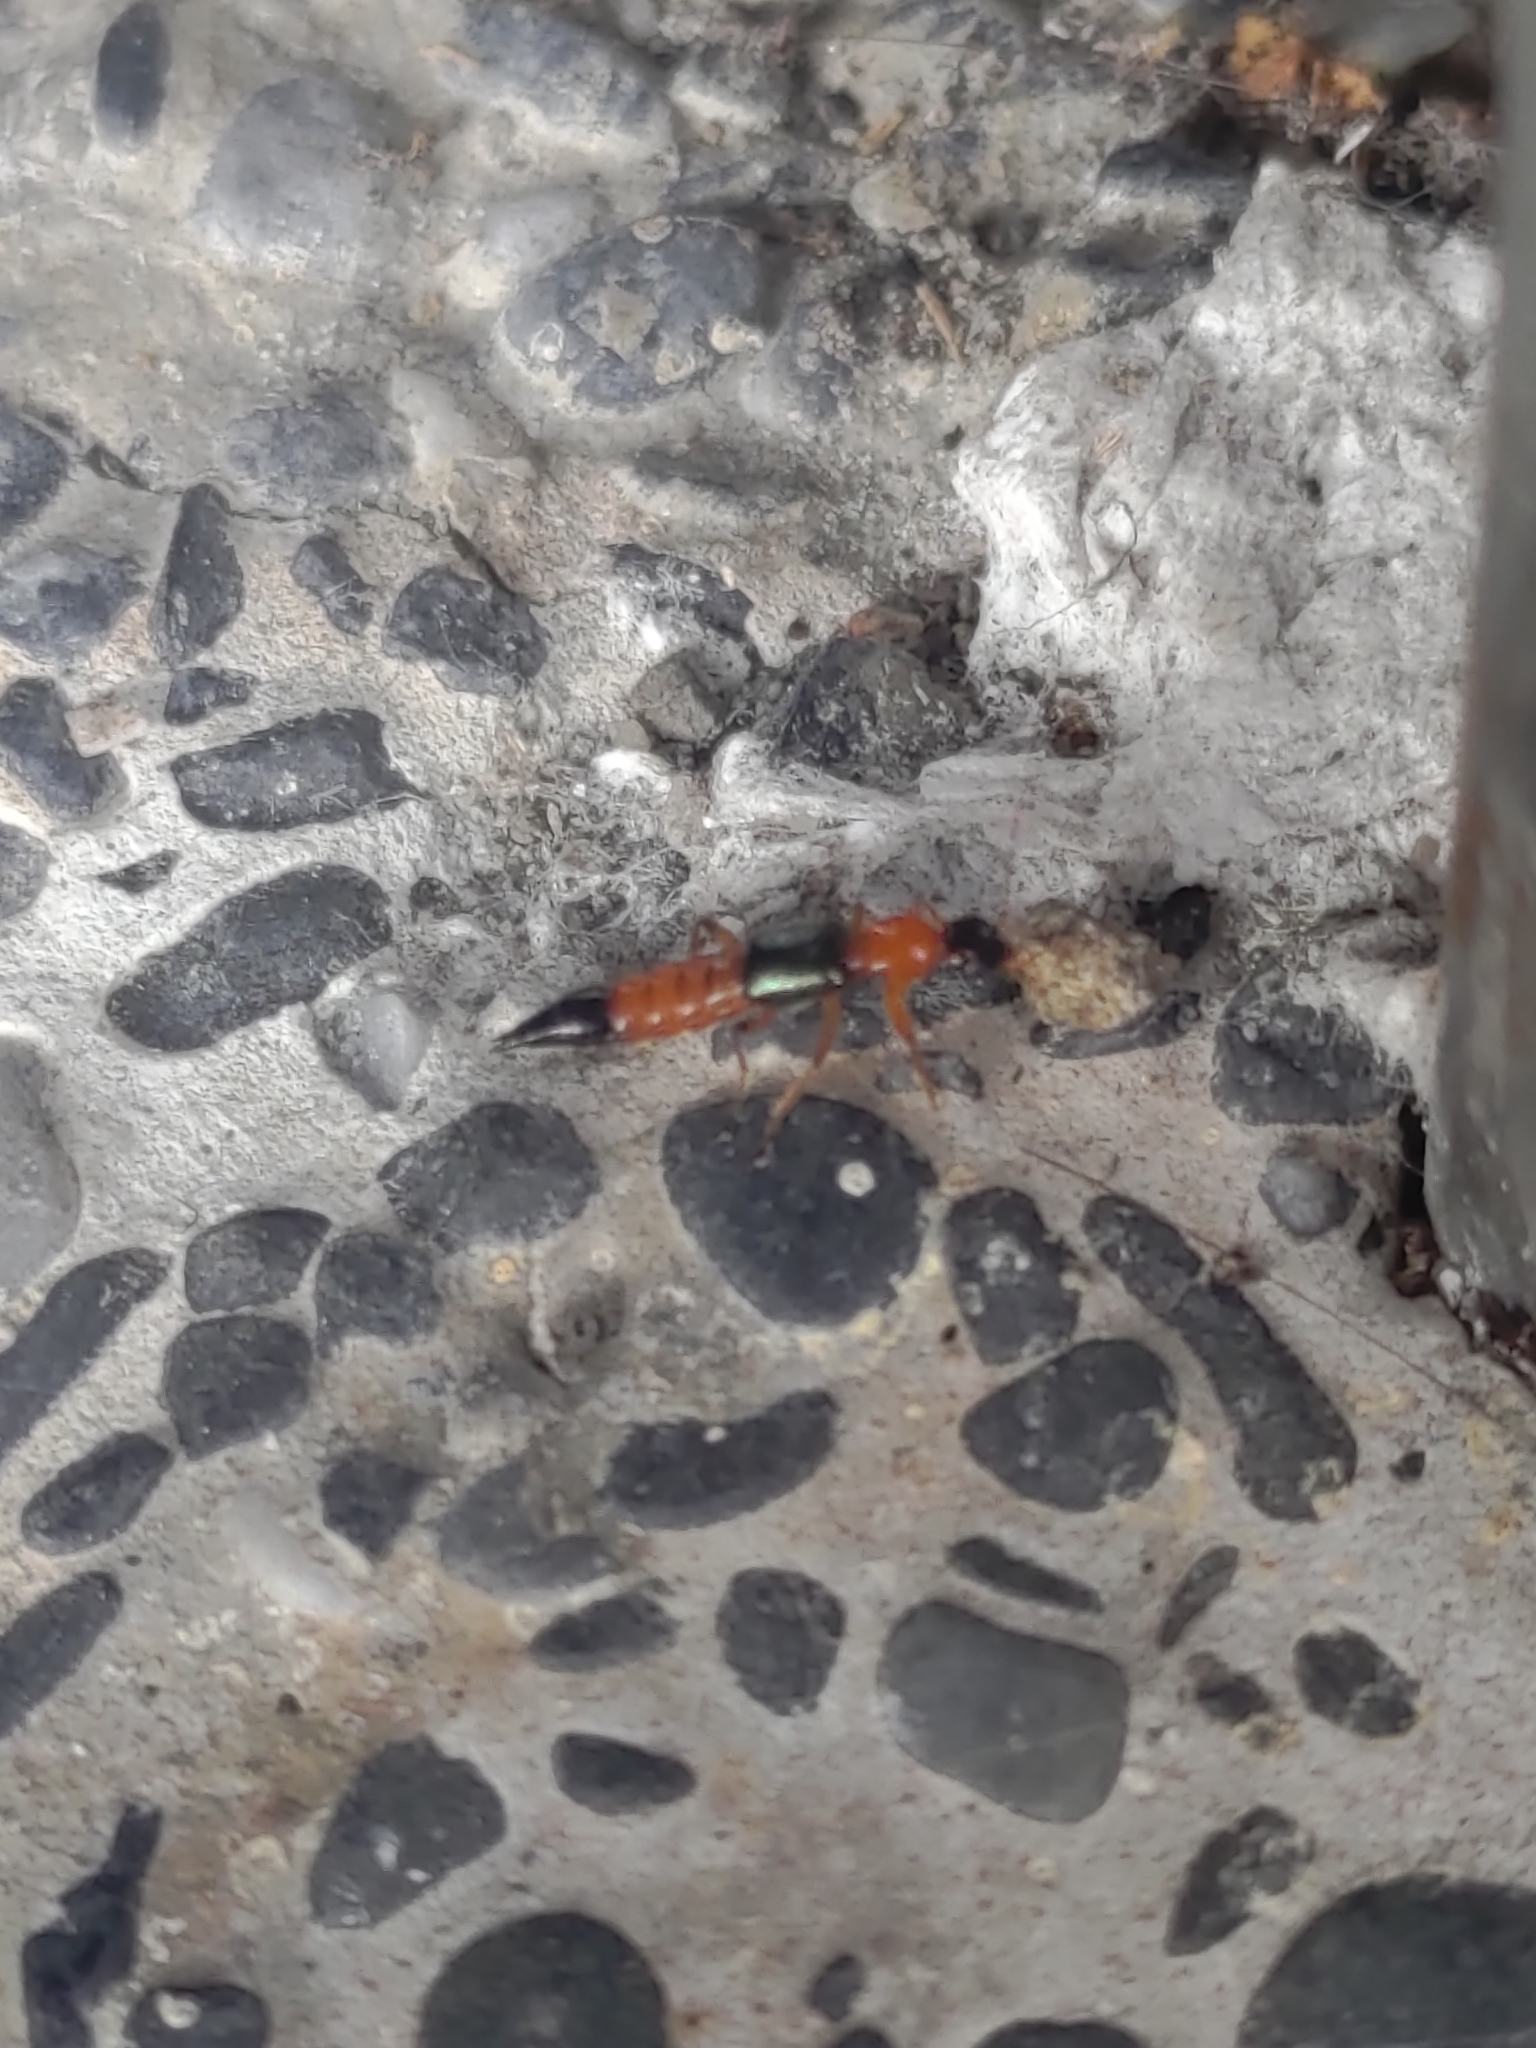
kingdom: Animalia
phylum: Arthropoda
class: Insecta
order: Coleoptera
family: Staphylinidae
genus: Paederus
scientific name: Paederus fuscipes
